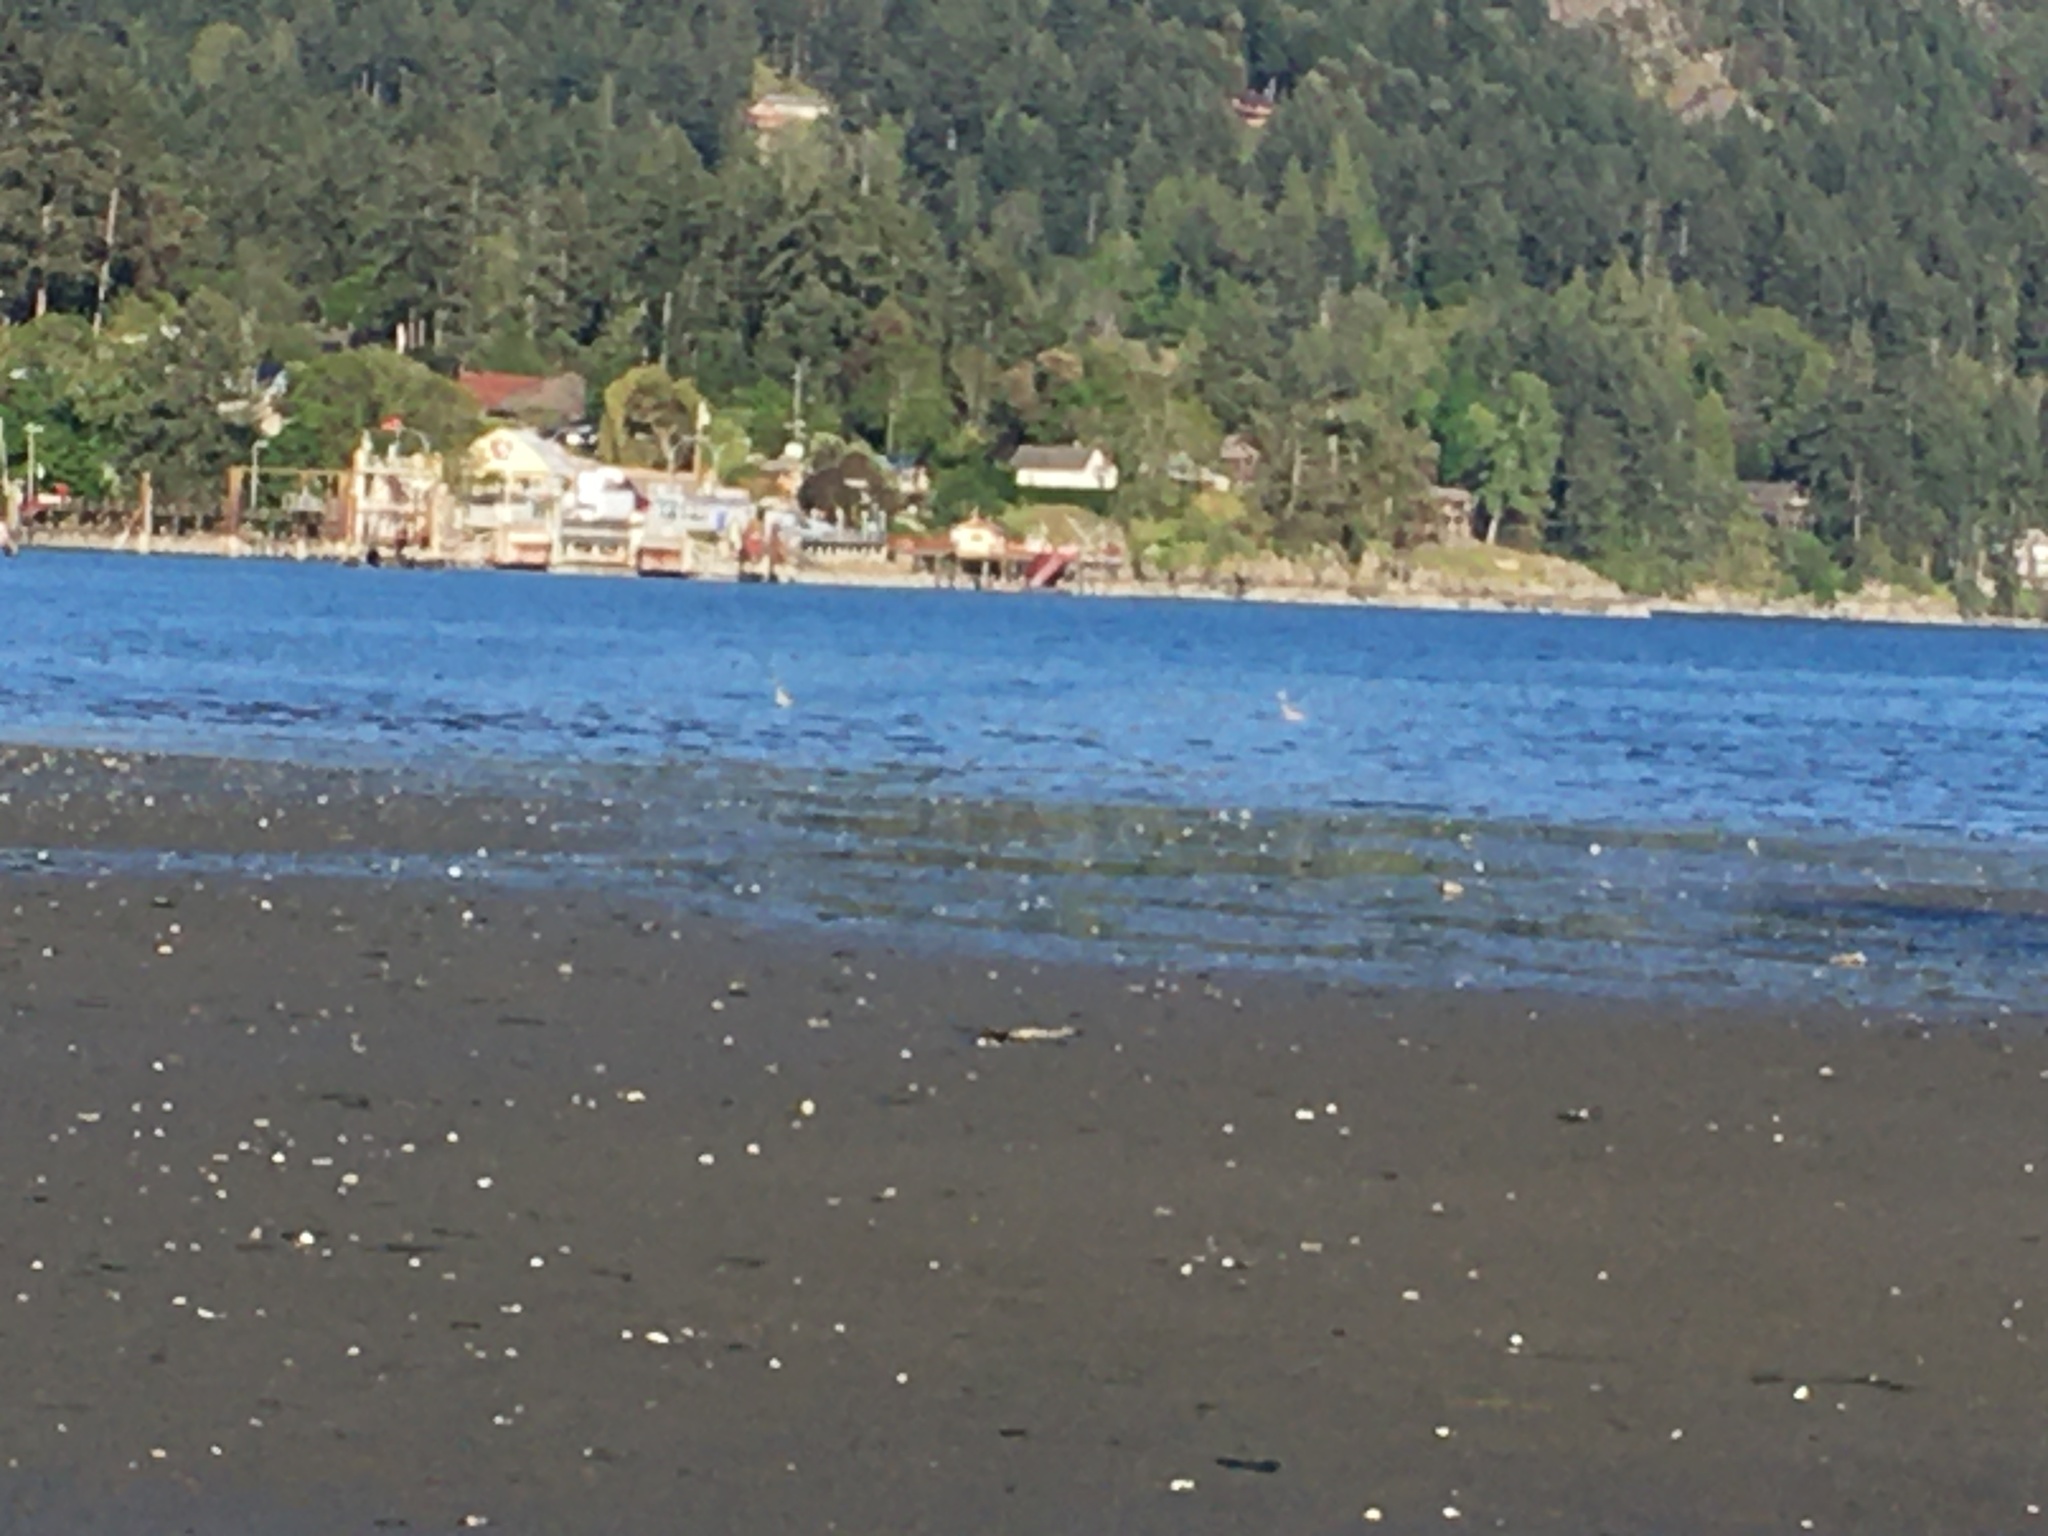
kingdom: Animalia
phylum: Chordata
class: Aves
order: Pelecaniformes
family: Ardeidae
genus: Ardea
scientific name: Ardea herodias
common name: Great blue heron
